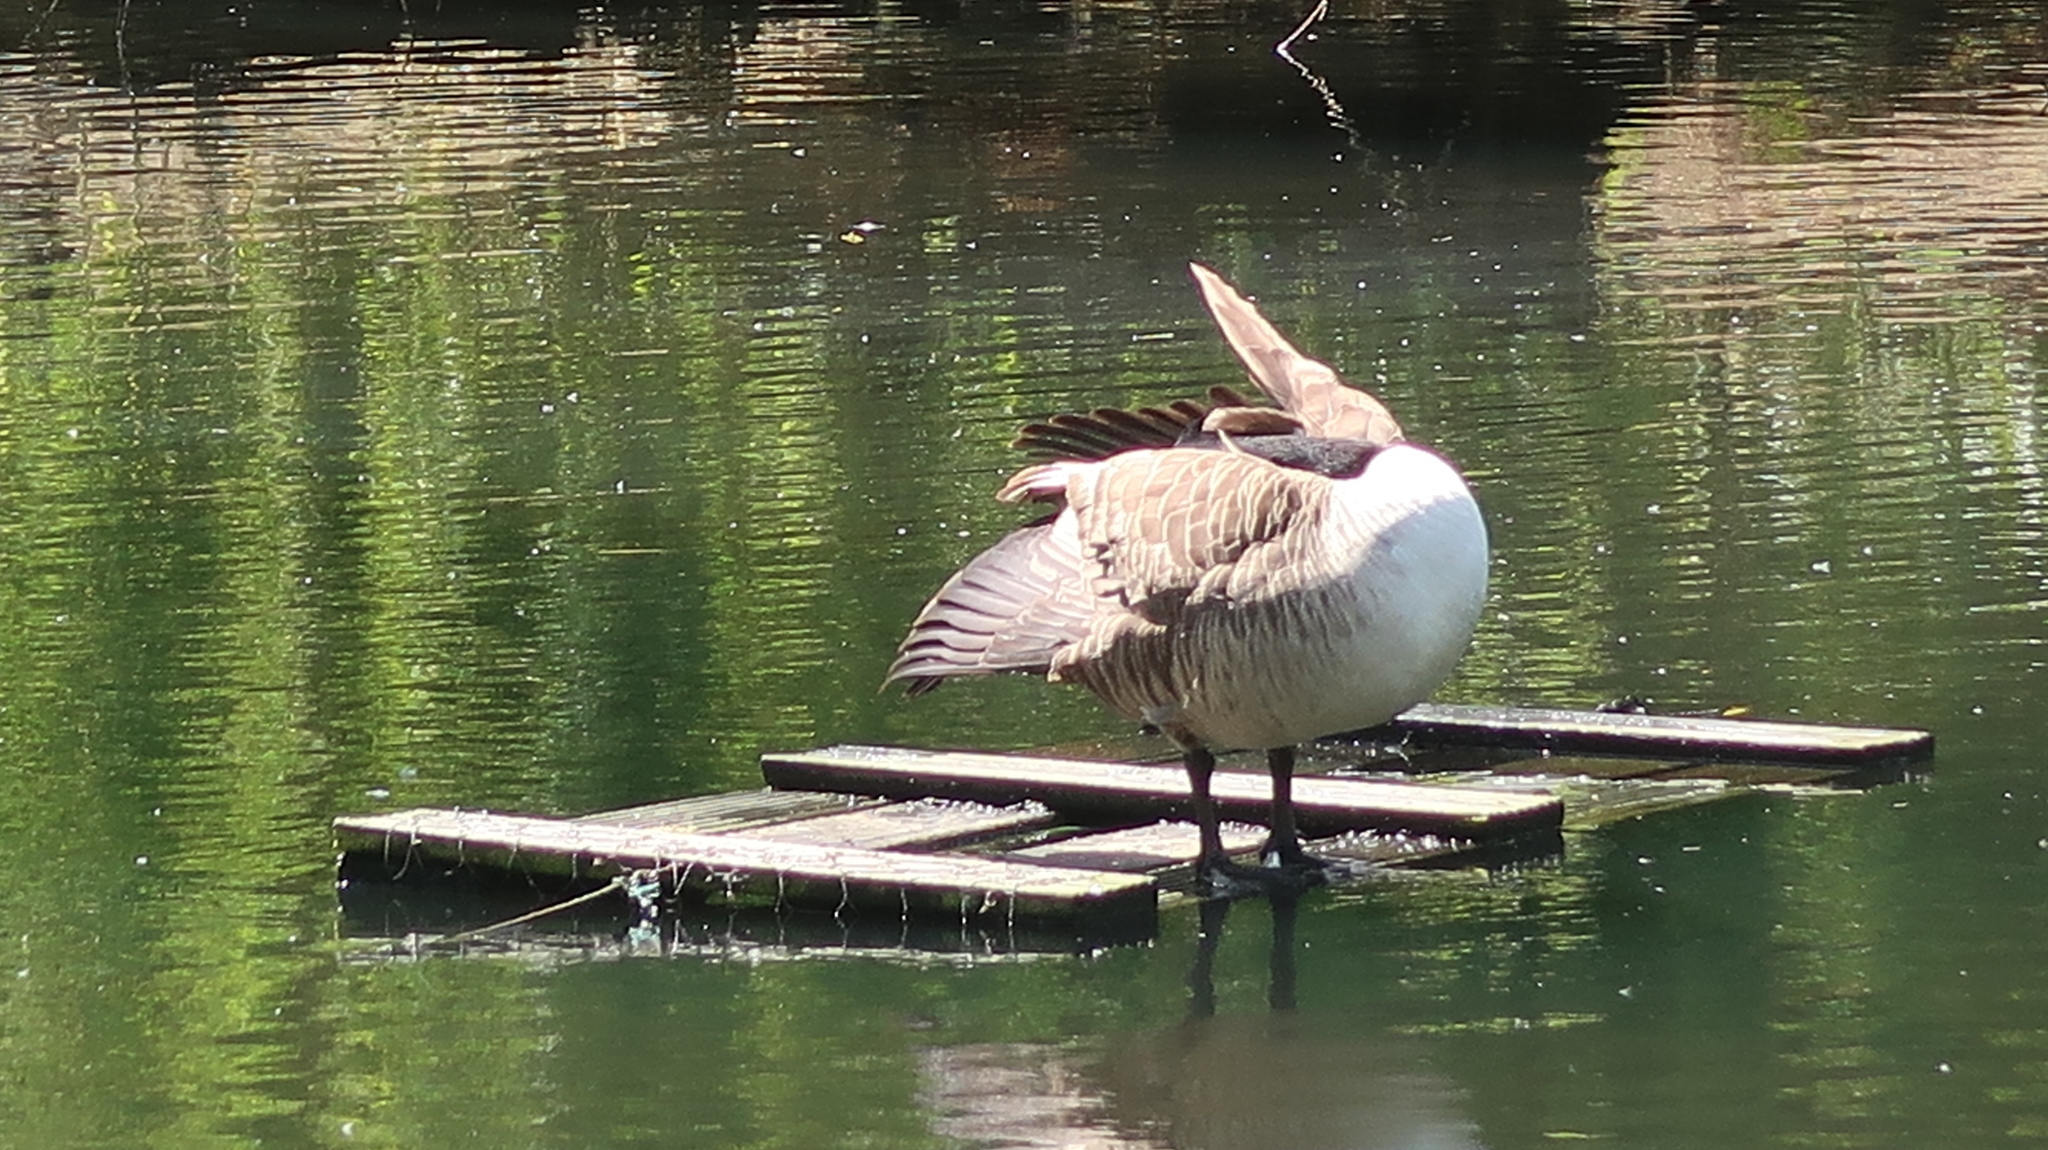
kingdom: Animalia
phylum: Chordata
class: Aves
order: Anseriformes
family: Anatidae
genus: Branta
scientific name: Branta canadensis
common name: Canada goose
